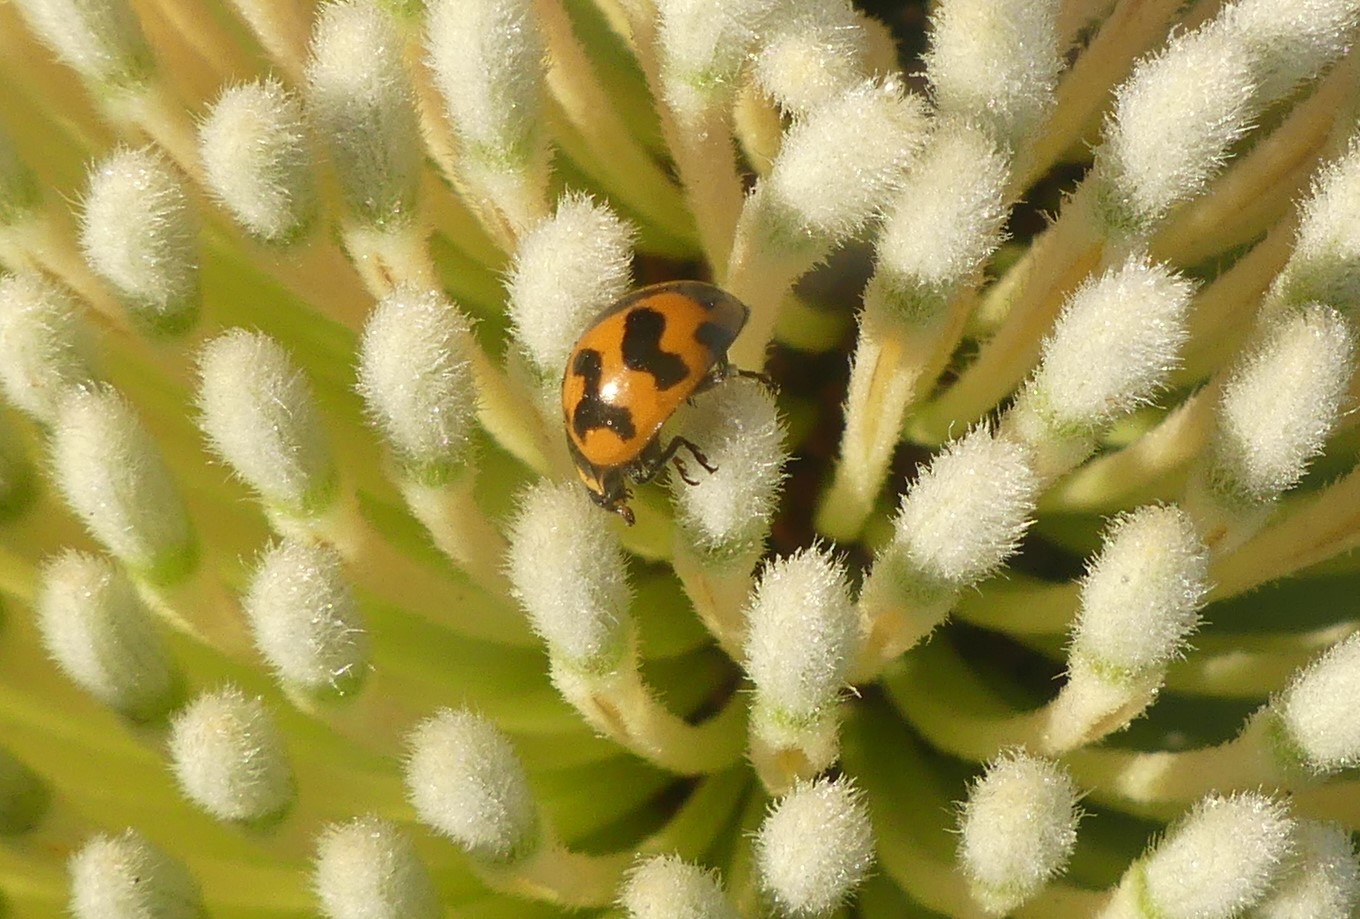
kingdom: Animalia
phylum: Arthropoda
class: Insecta
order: Coleoptera
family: Coccinellidae
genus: Coccinella
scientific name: Coccinella transversalis
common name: Transverse lady beetle
